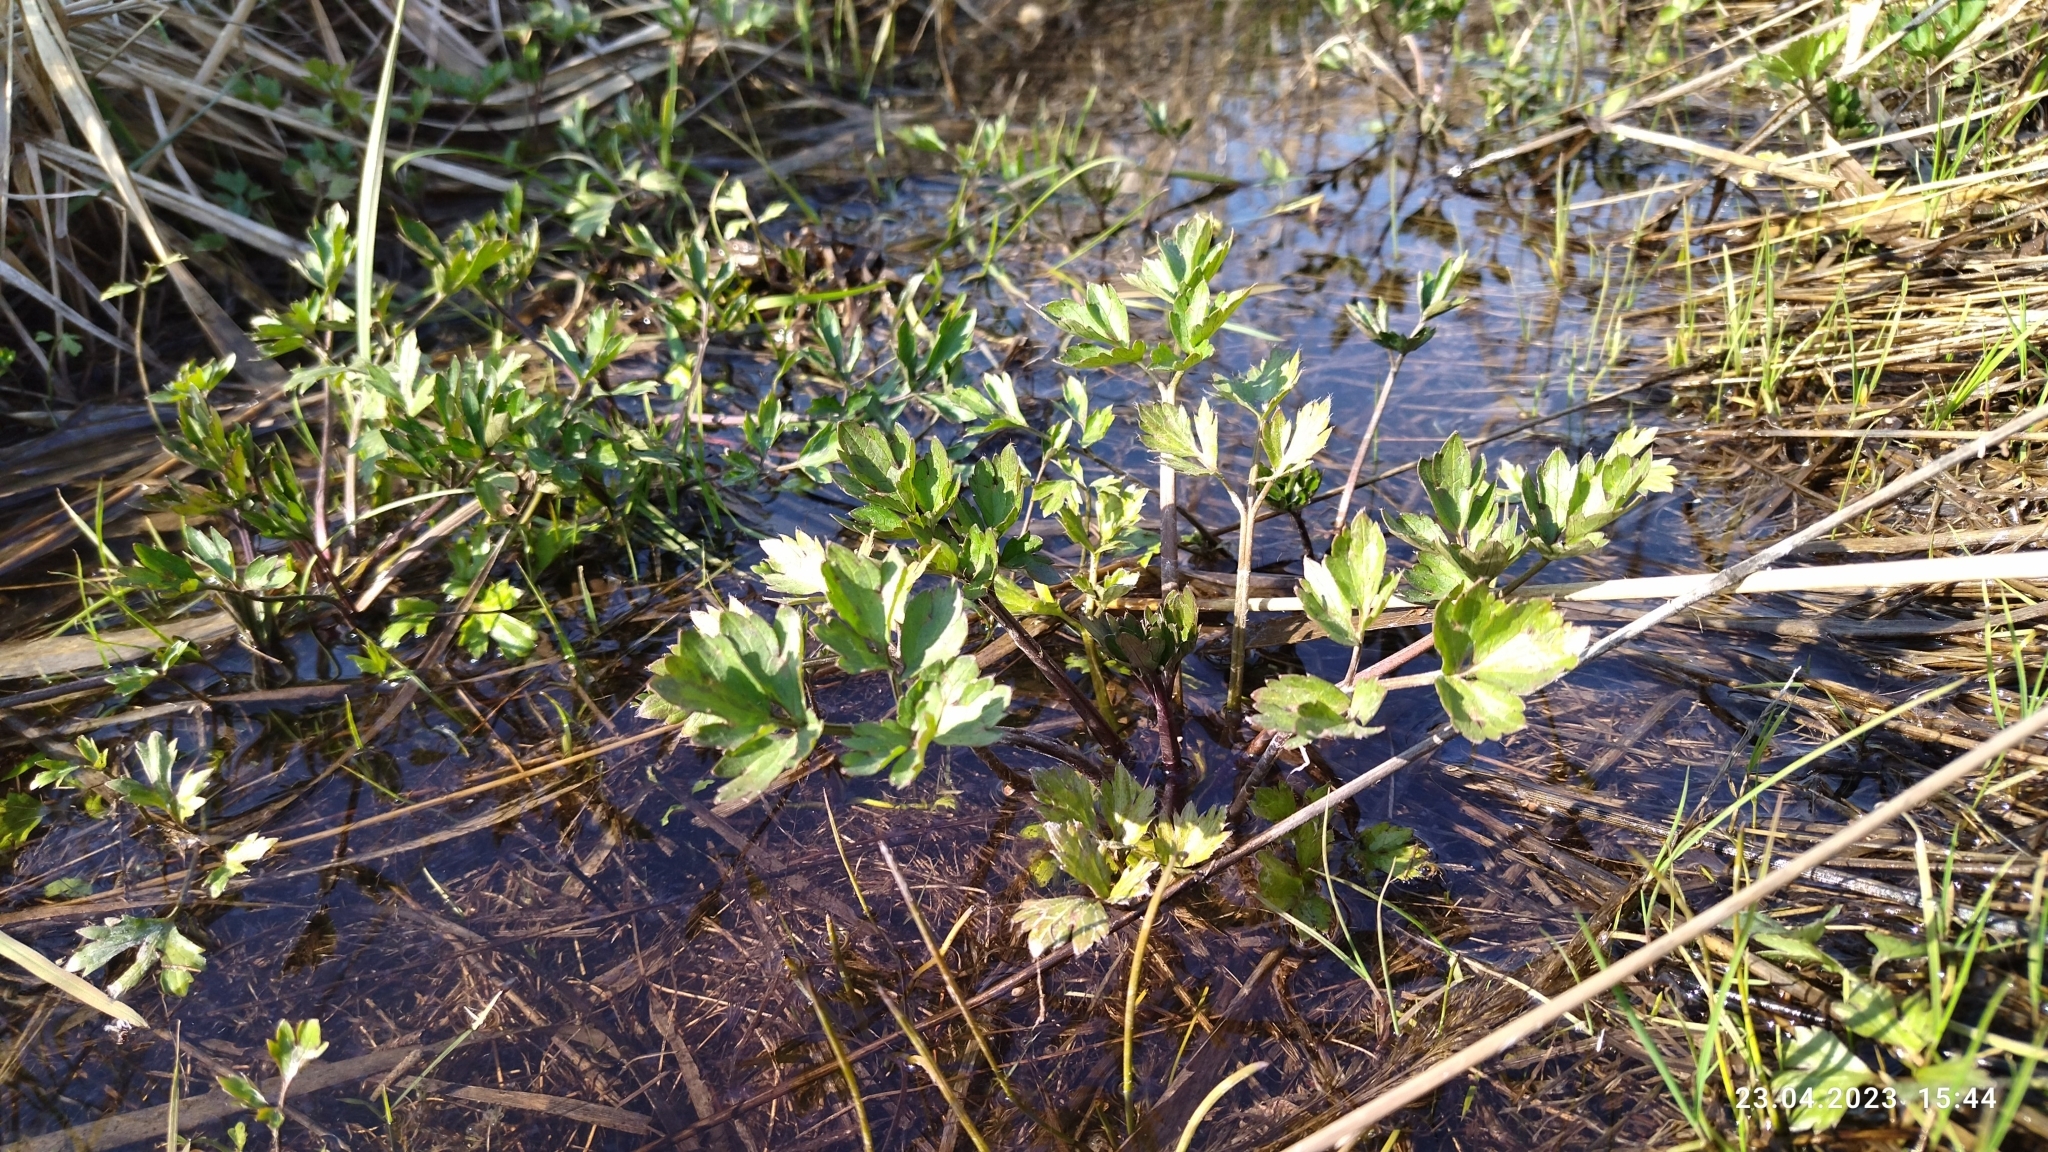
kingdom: Plantae
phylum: Tracheophyta
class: Magnoliopsida
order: Ranunculales
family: Ranunculaceae
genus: Ranunculus
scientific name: Ranunculus repens
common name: Creeping buttercup
